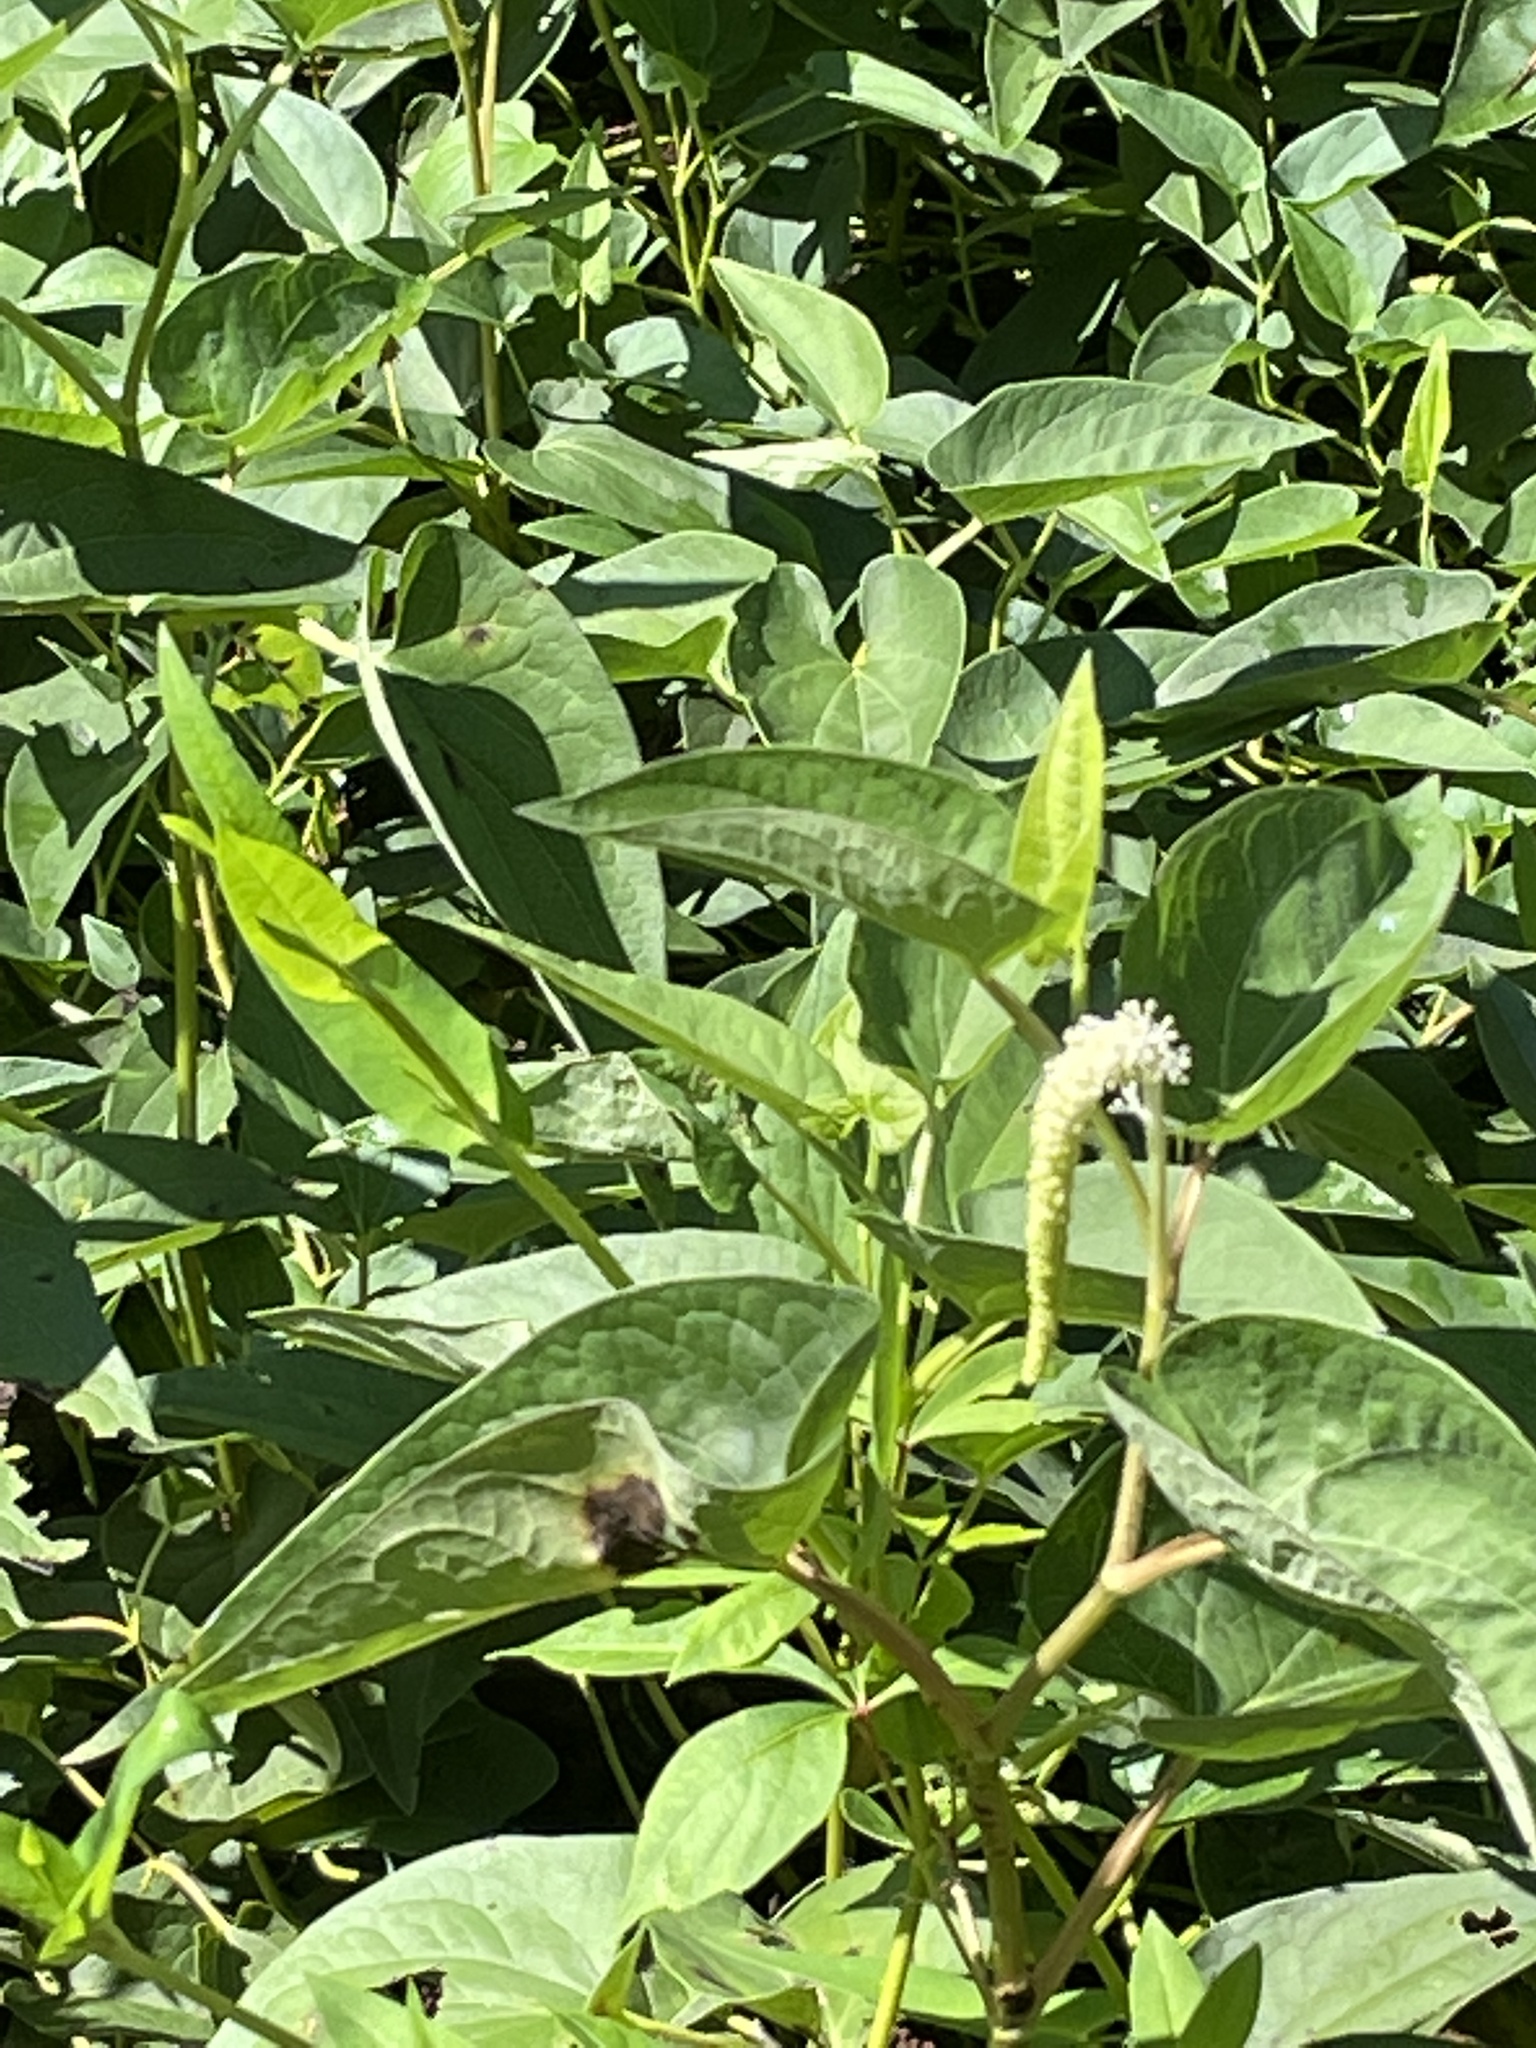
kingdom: Plantae
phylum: Tracheophyta
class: Magnoliopsida
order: Piperales
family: Saururaceae
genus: Saururus
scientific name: Saururus cernuus
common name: Lizard's-tail
